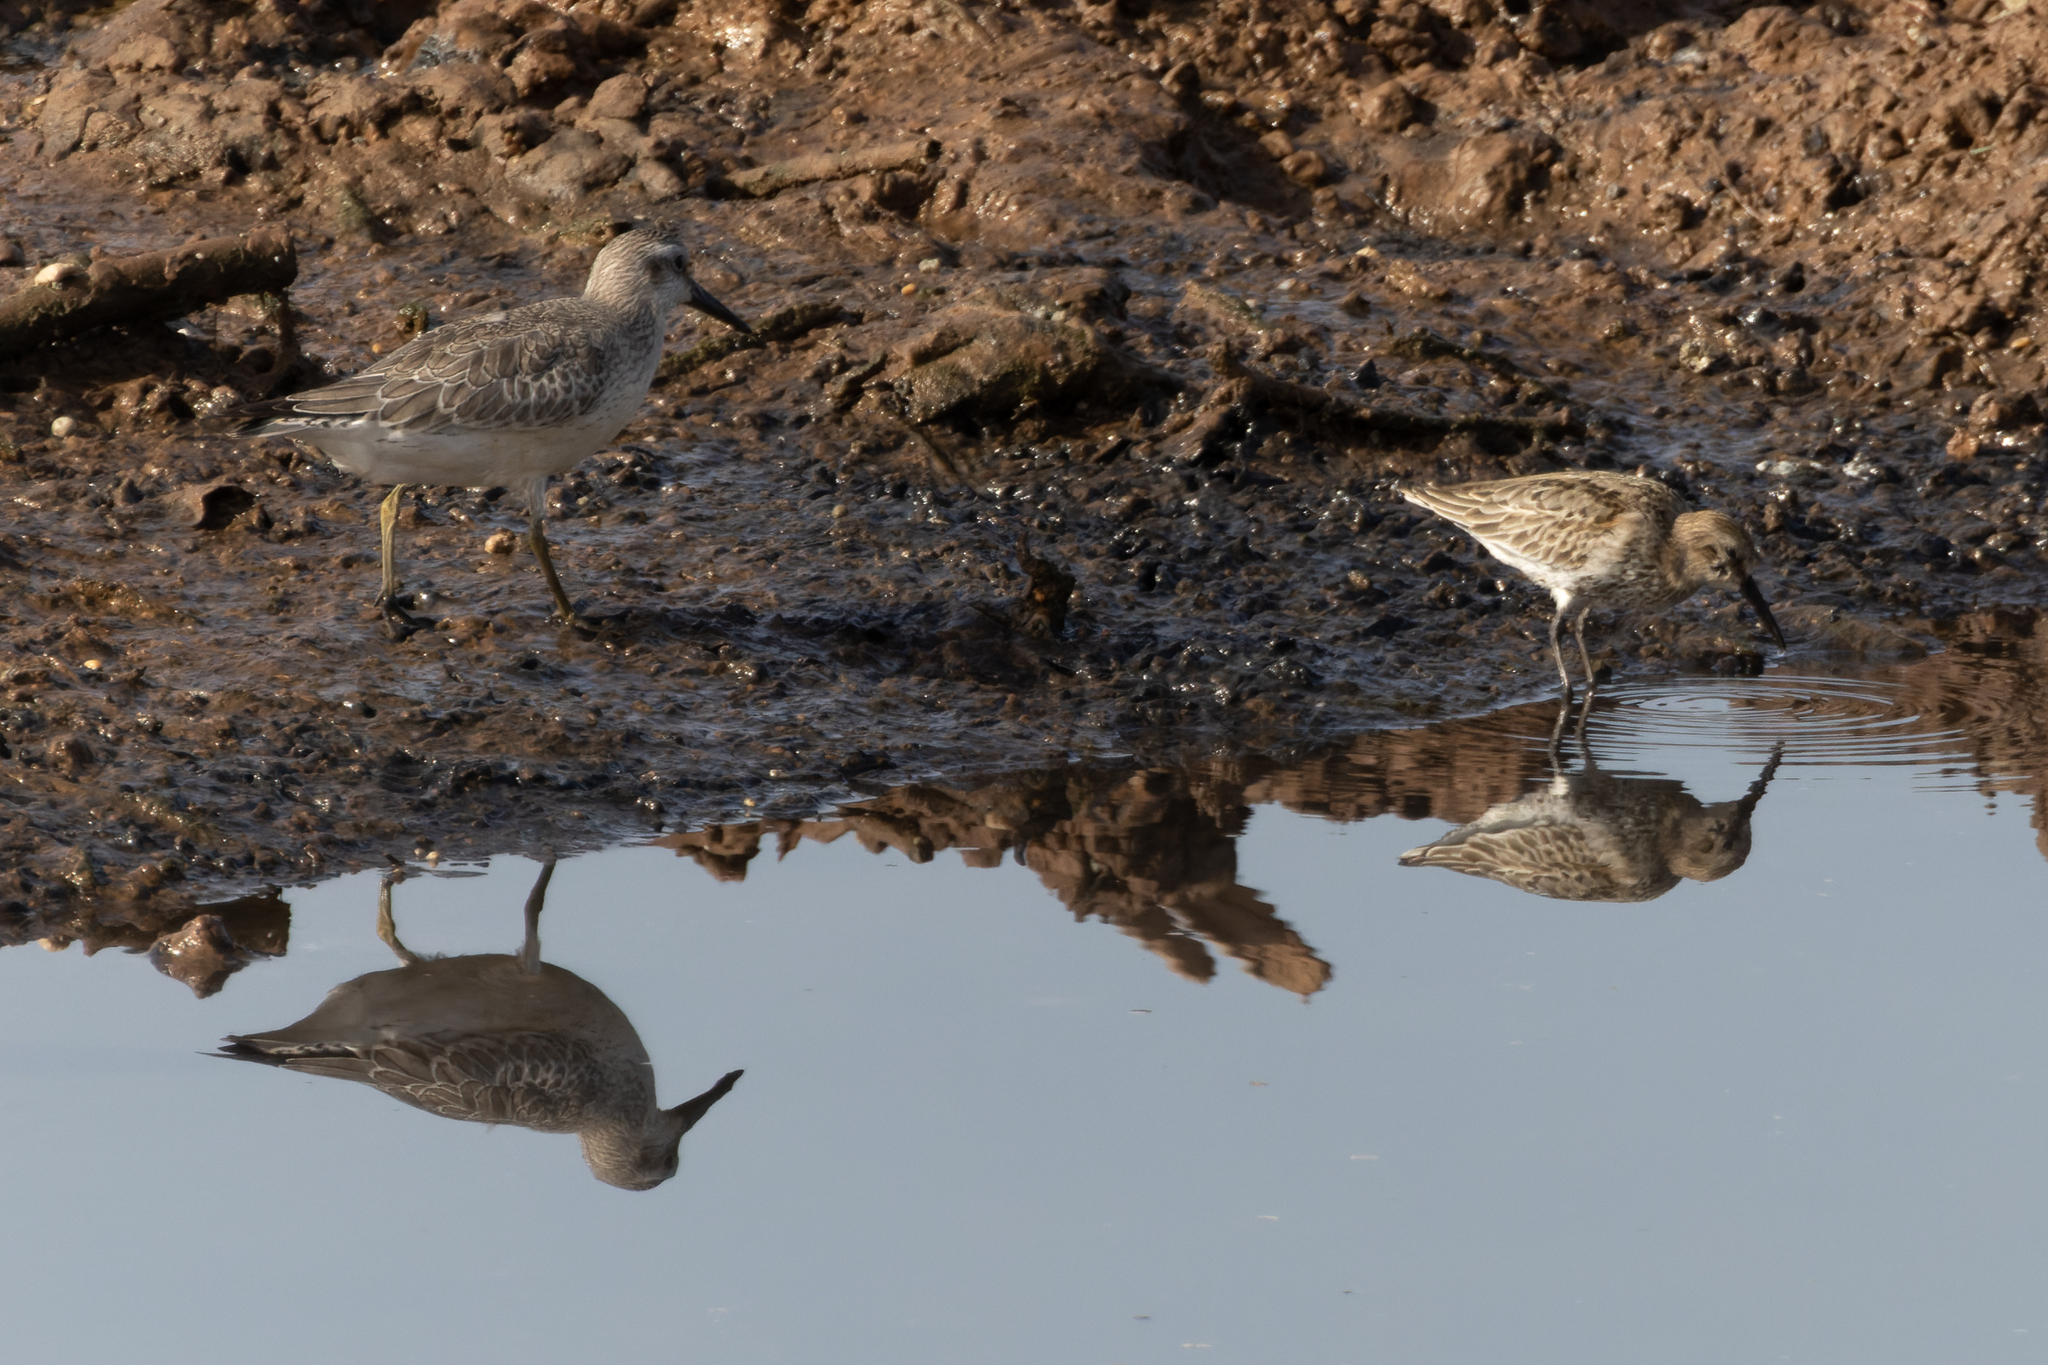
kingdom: Animalia
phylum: Chordata
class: Aves
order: Charadriiformes
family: Scolopacidae
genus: Calidris
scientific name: Calidris canutus
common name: Red knot
